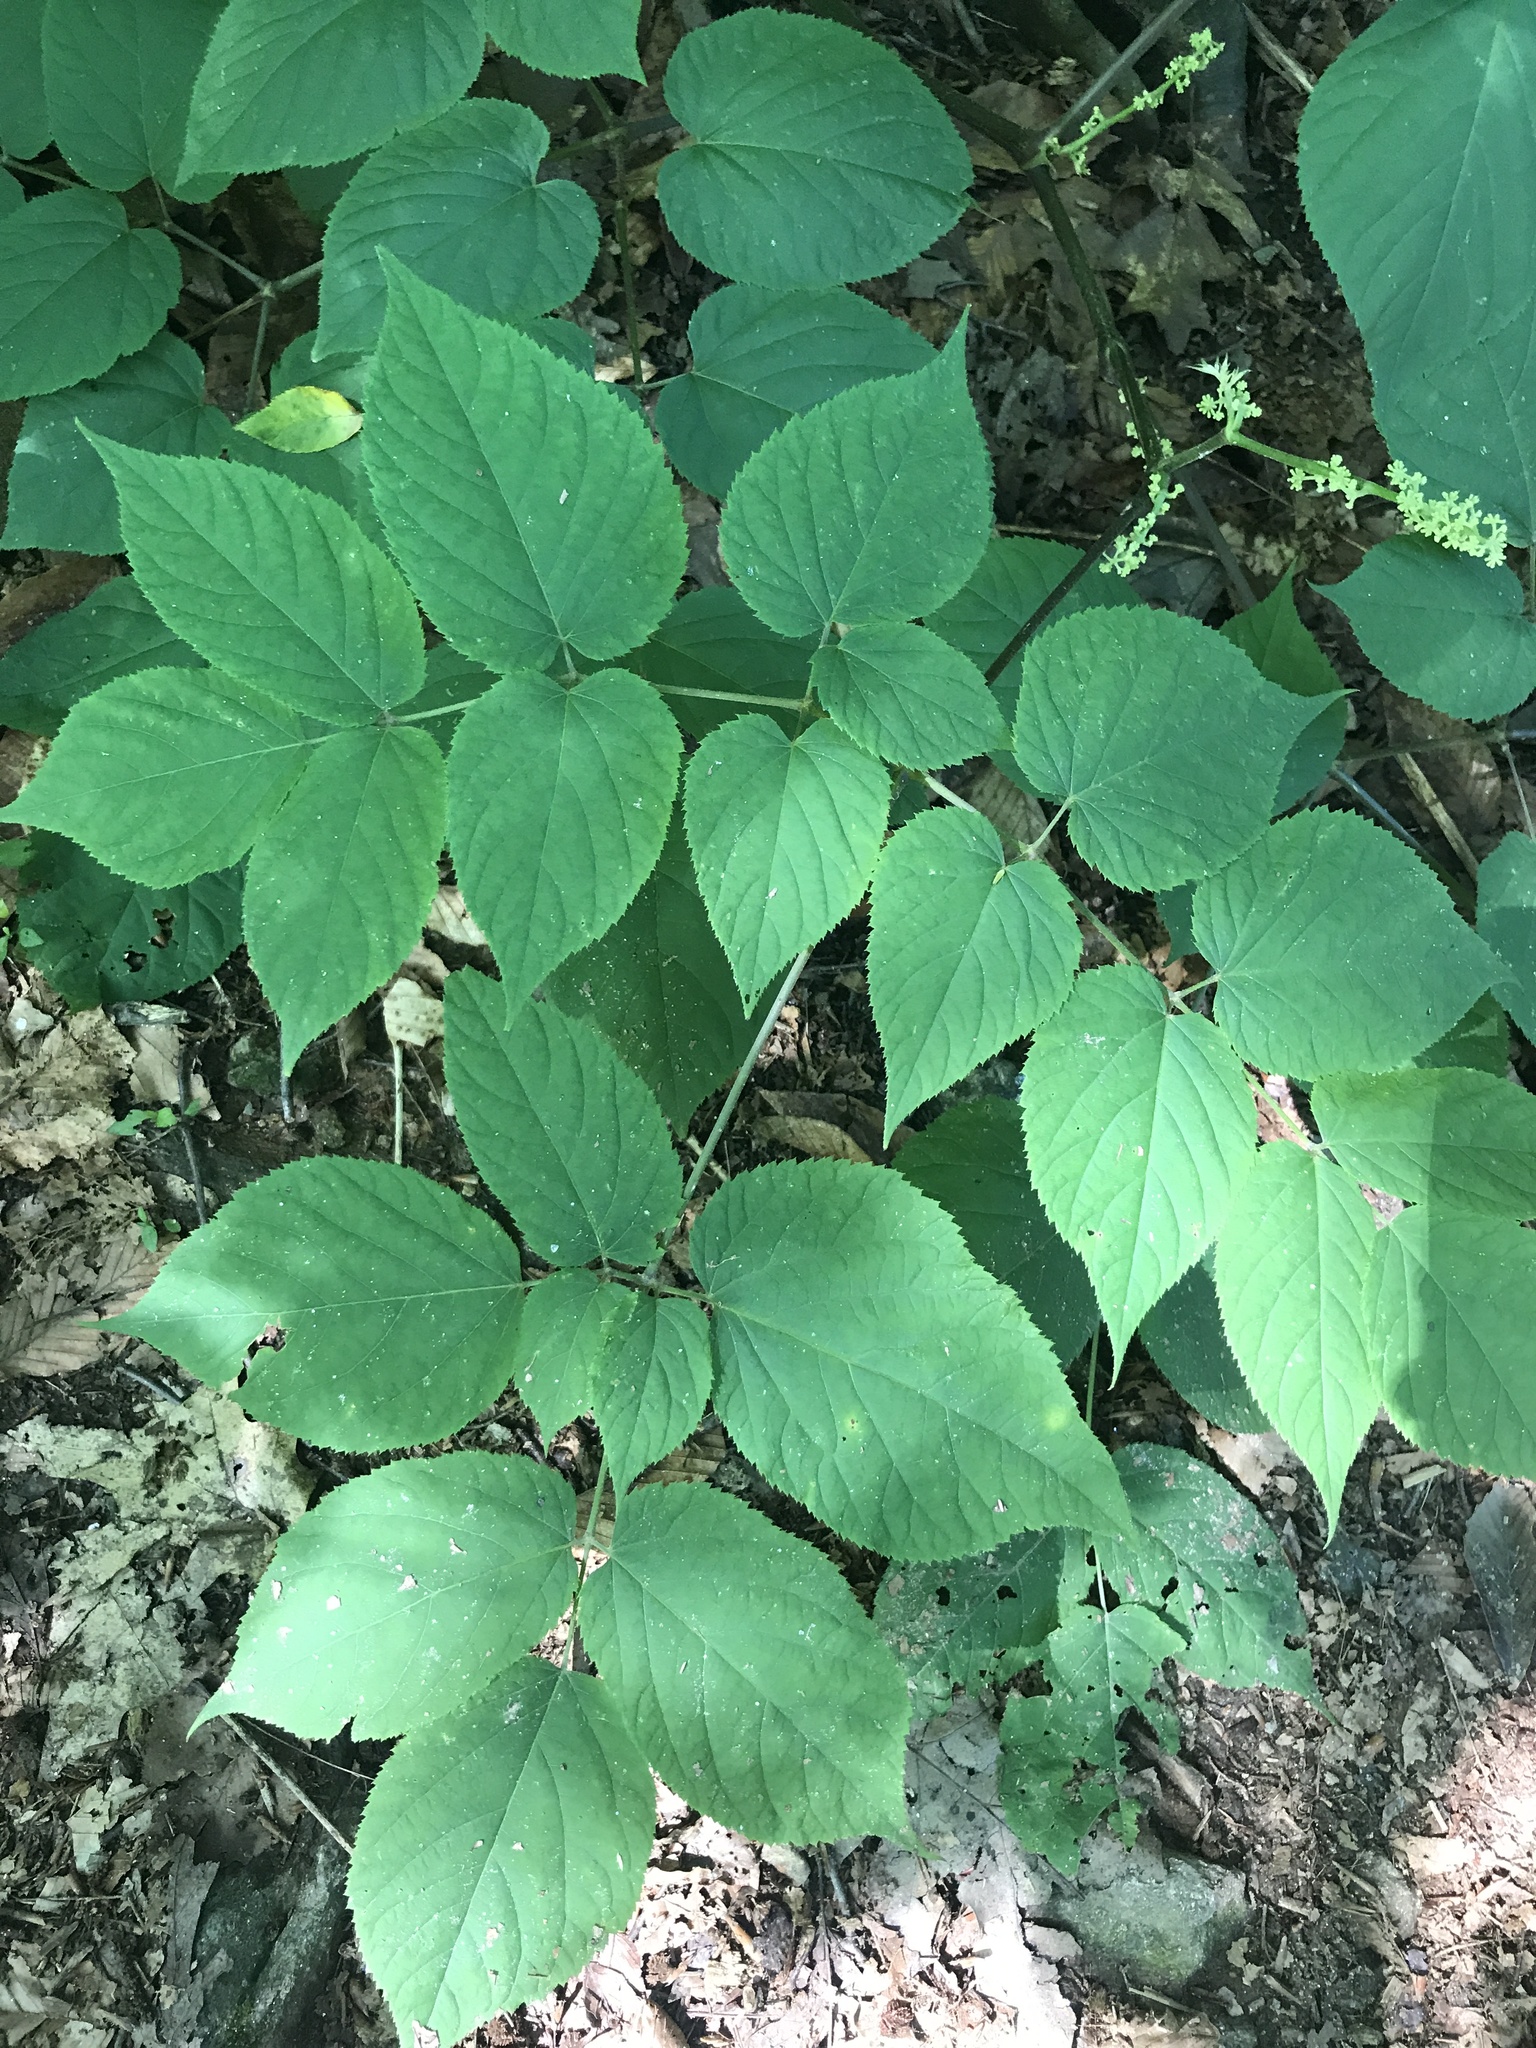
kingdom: Plantae
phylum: Tracheophyta
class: Magnoliopsida
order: Apiales
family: Araliaceae
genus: Aralia
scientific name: Aralia racemosa
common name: American-spikenard
